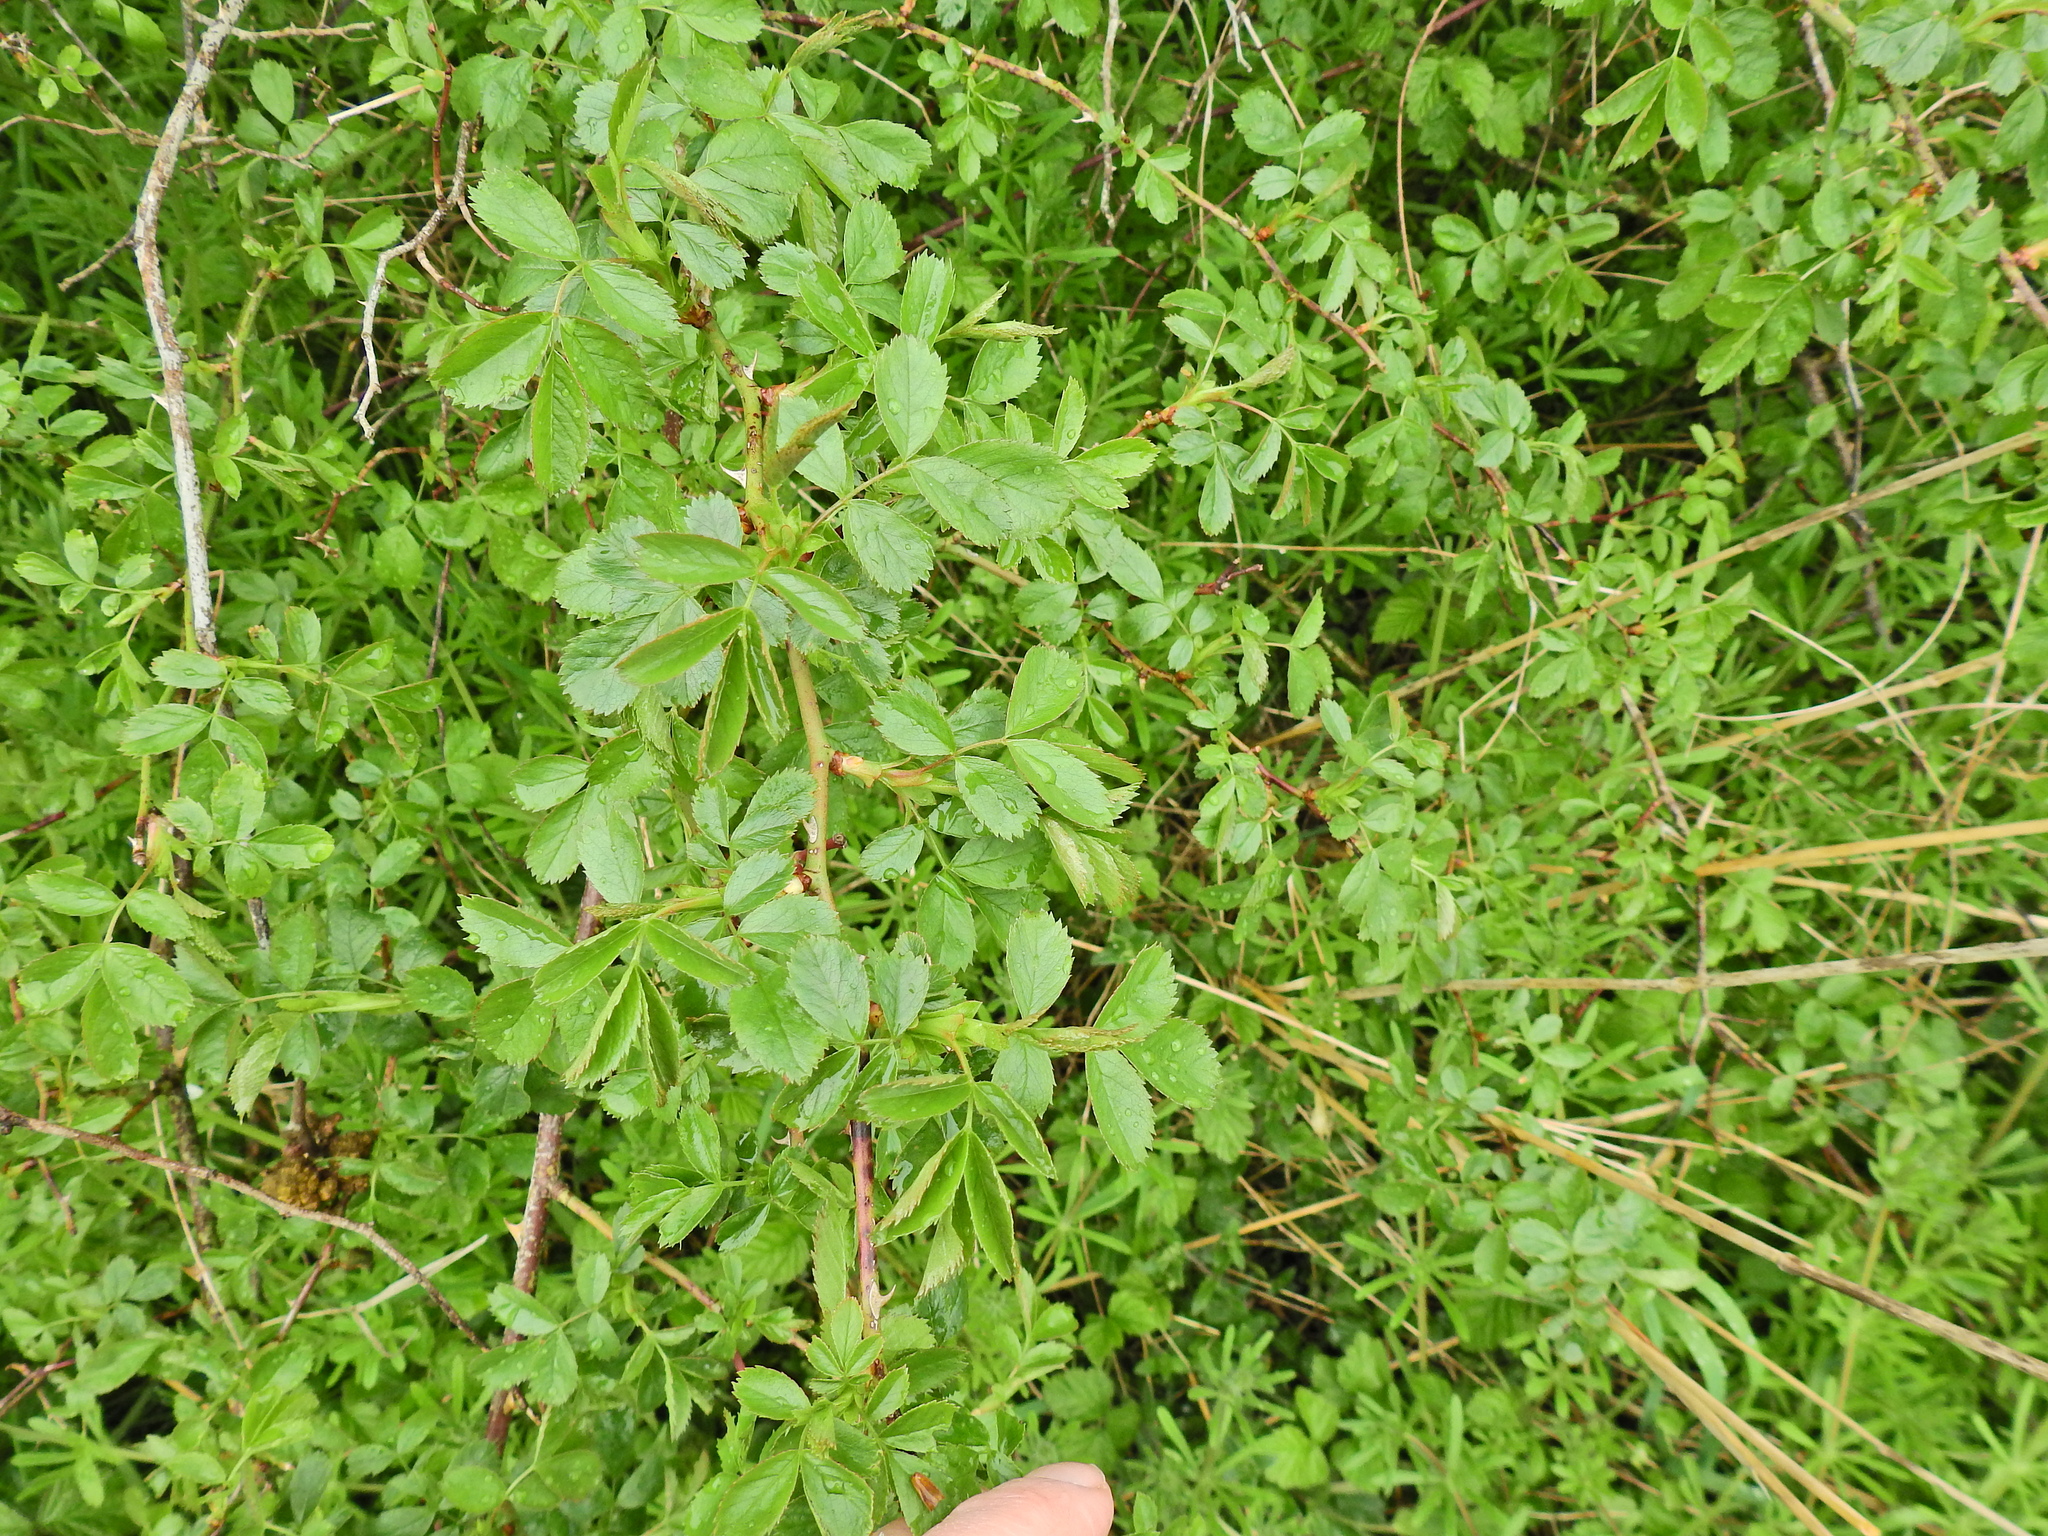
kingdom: Plantae
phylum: Tracheophyta
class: Magnoliopsida
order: Rosales
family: Rosaceae
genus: Rosa
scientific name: Rosa canina
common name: Dog rose
